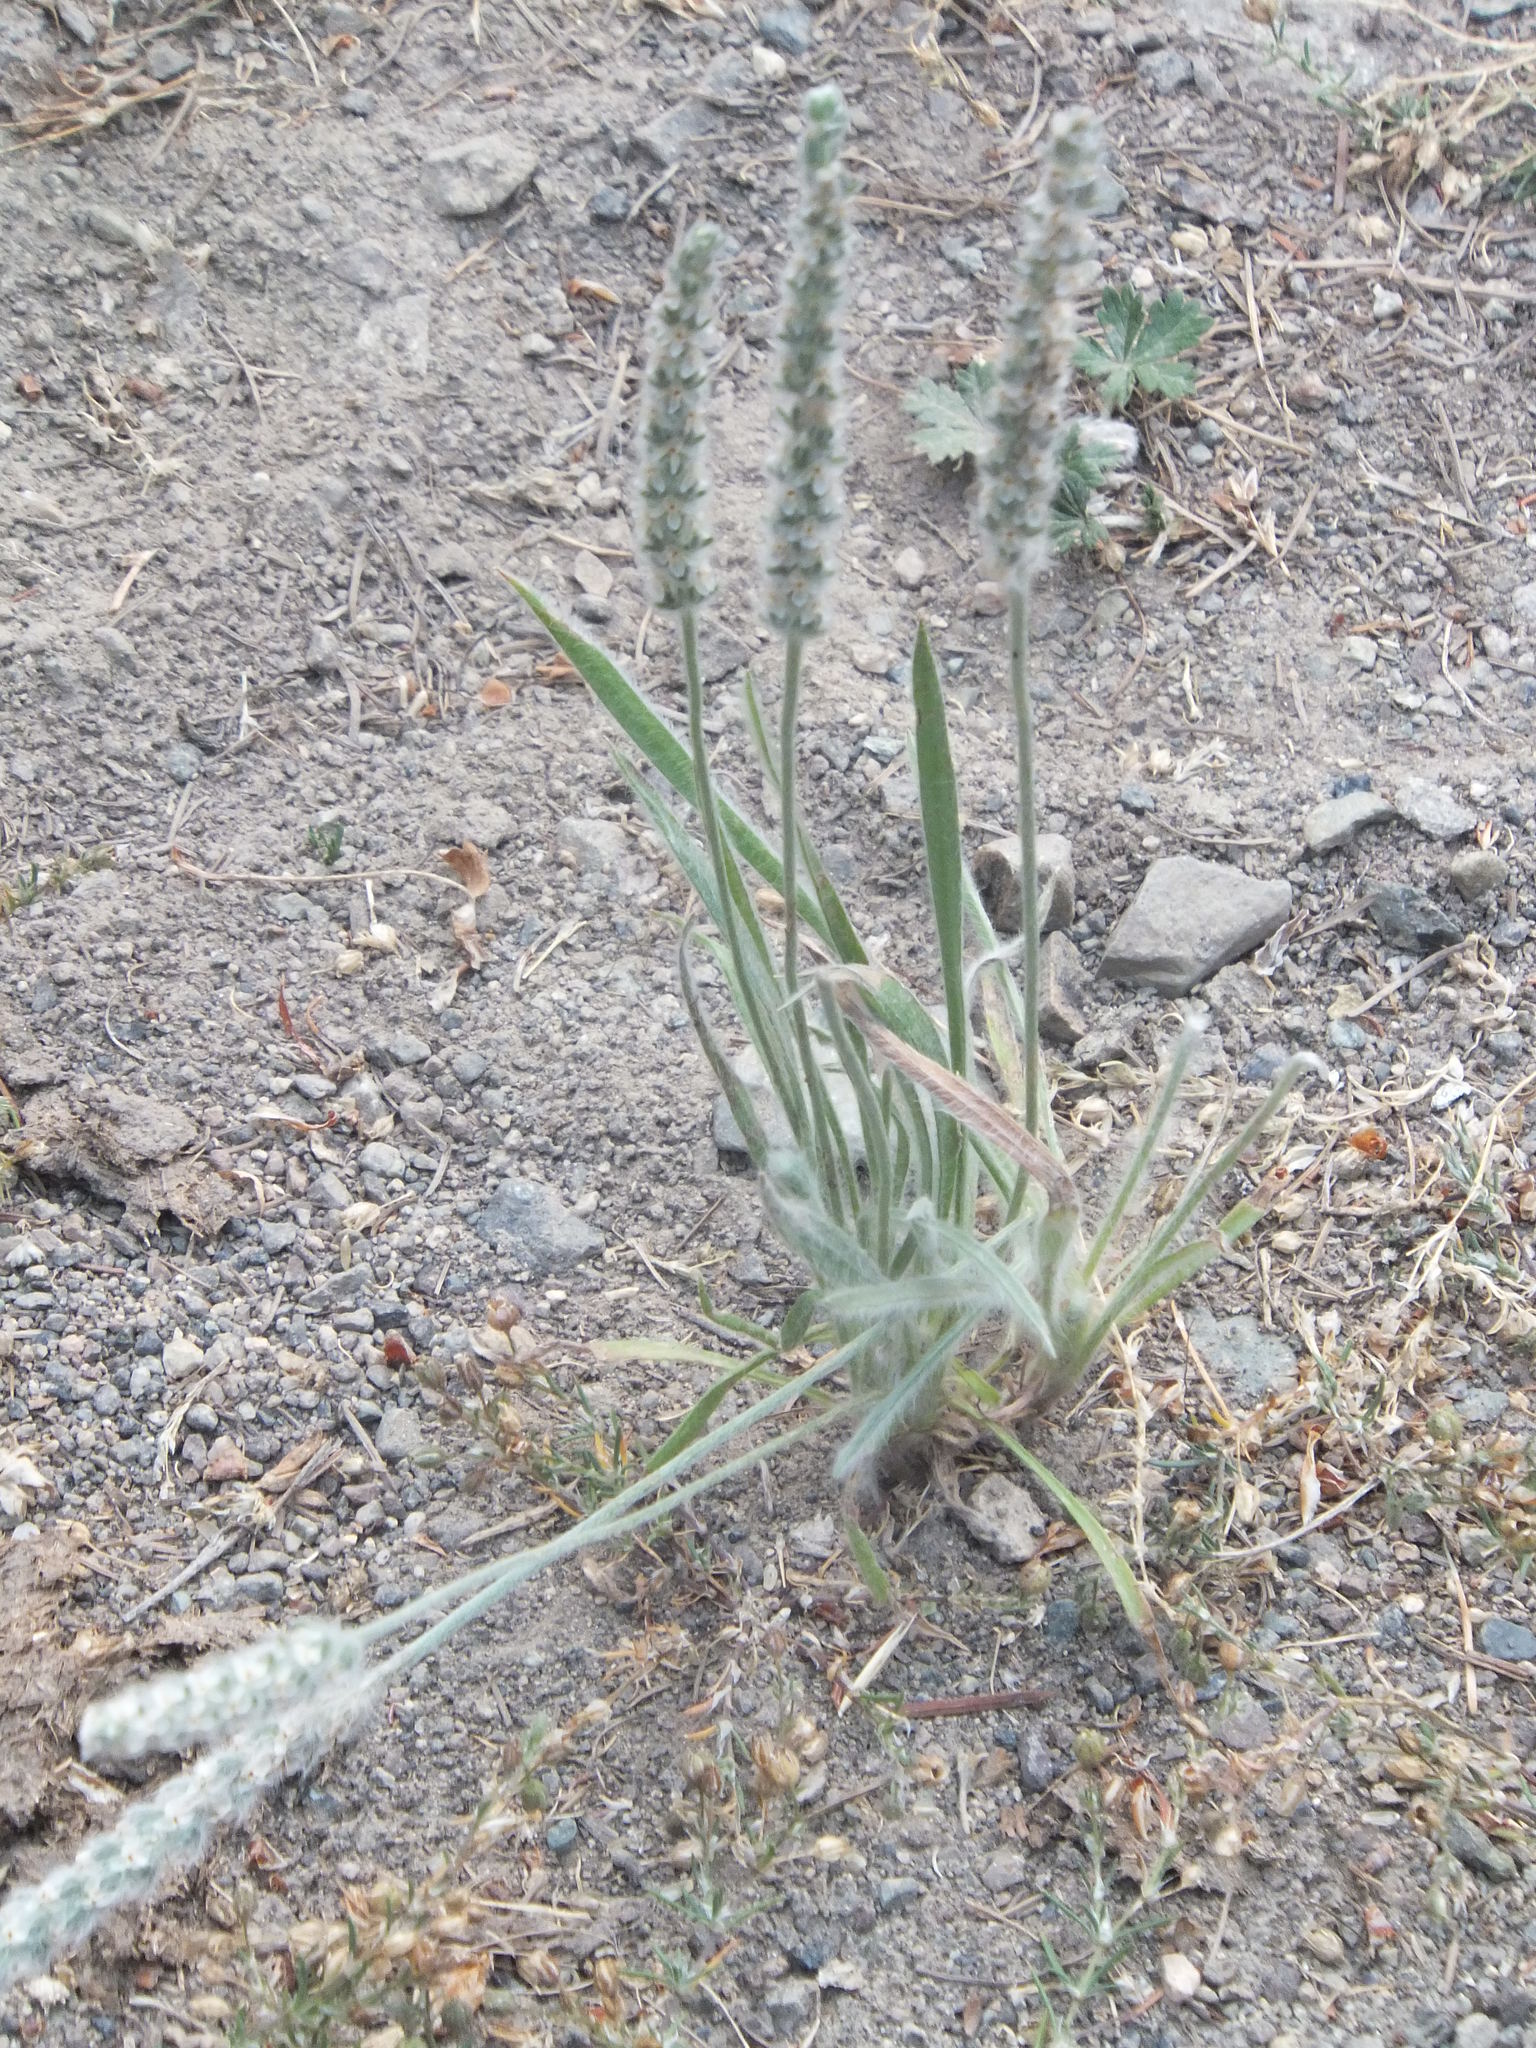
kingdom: Plantae
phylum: Tracheophyta
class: Magnoliopsida
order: Lamiales
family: Plantaginaceae
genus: Plantago
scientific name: Plantago patagonica
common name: Patagonia indian-wheat
